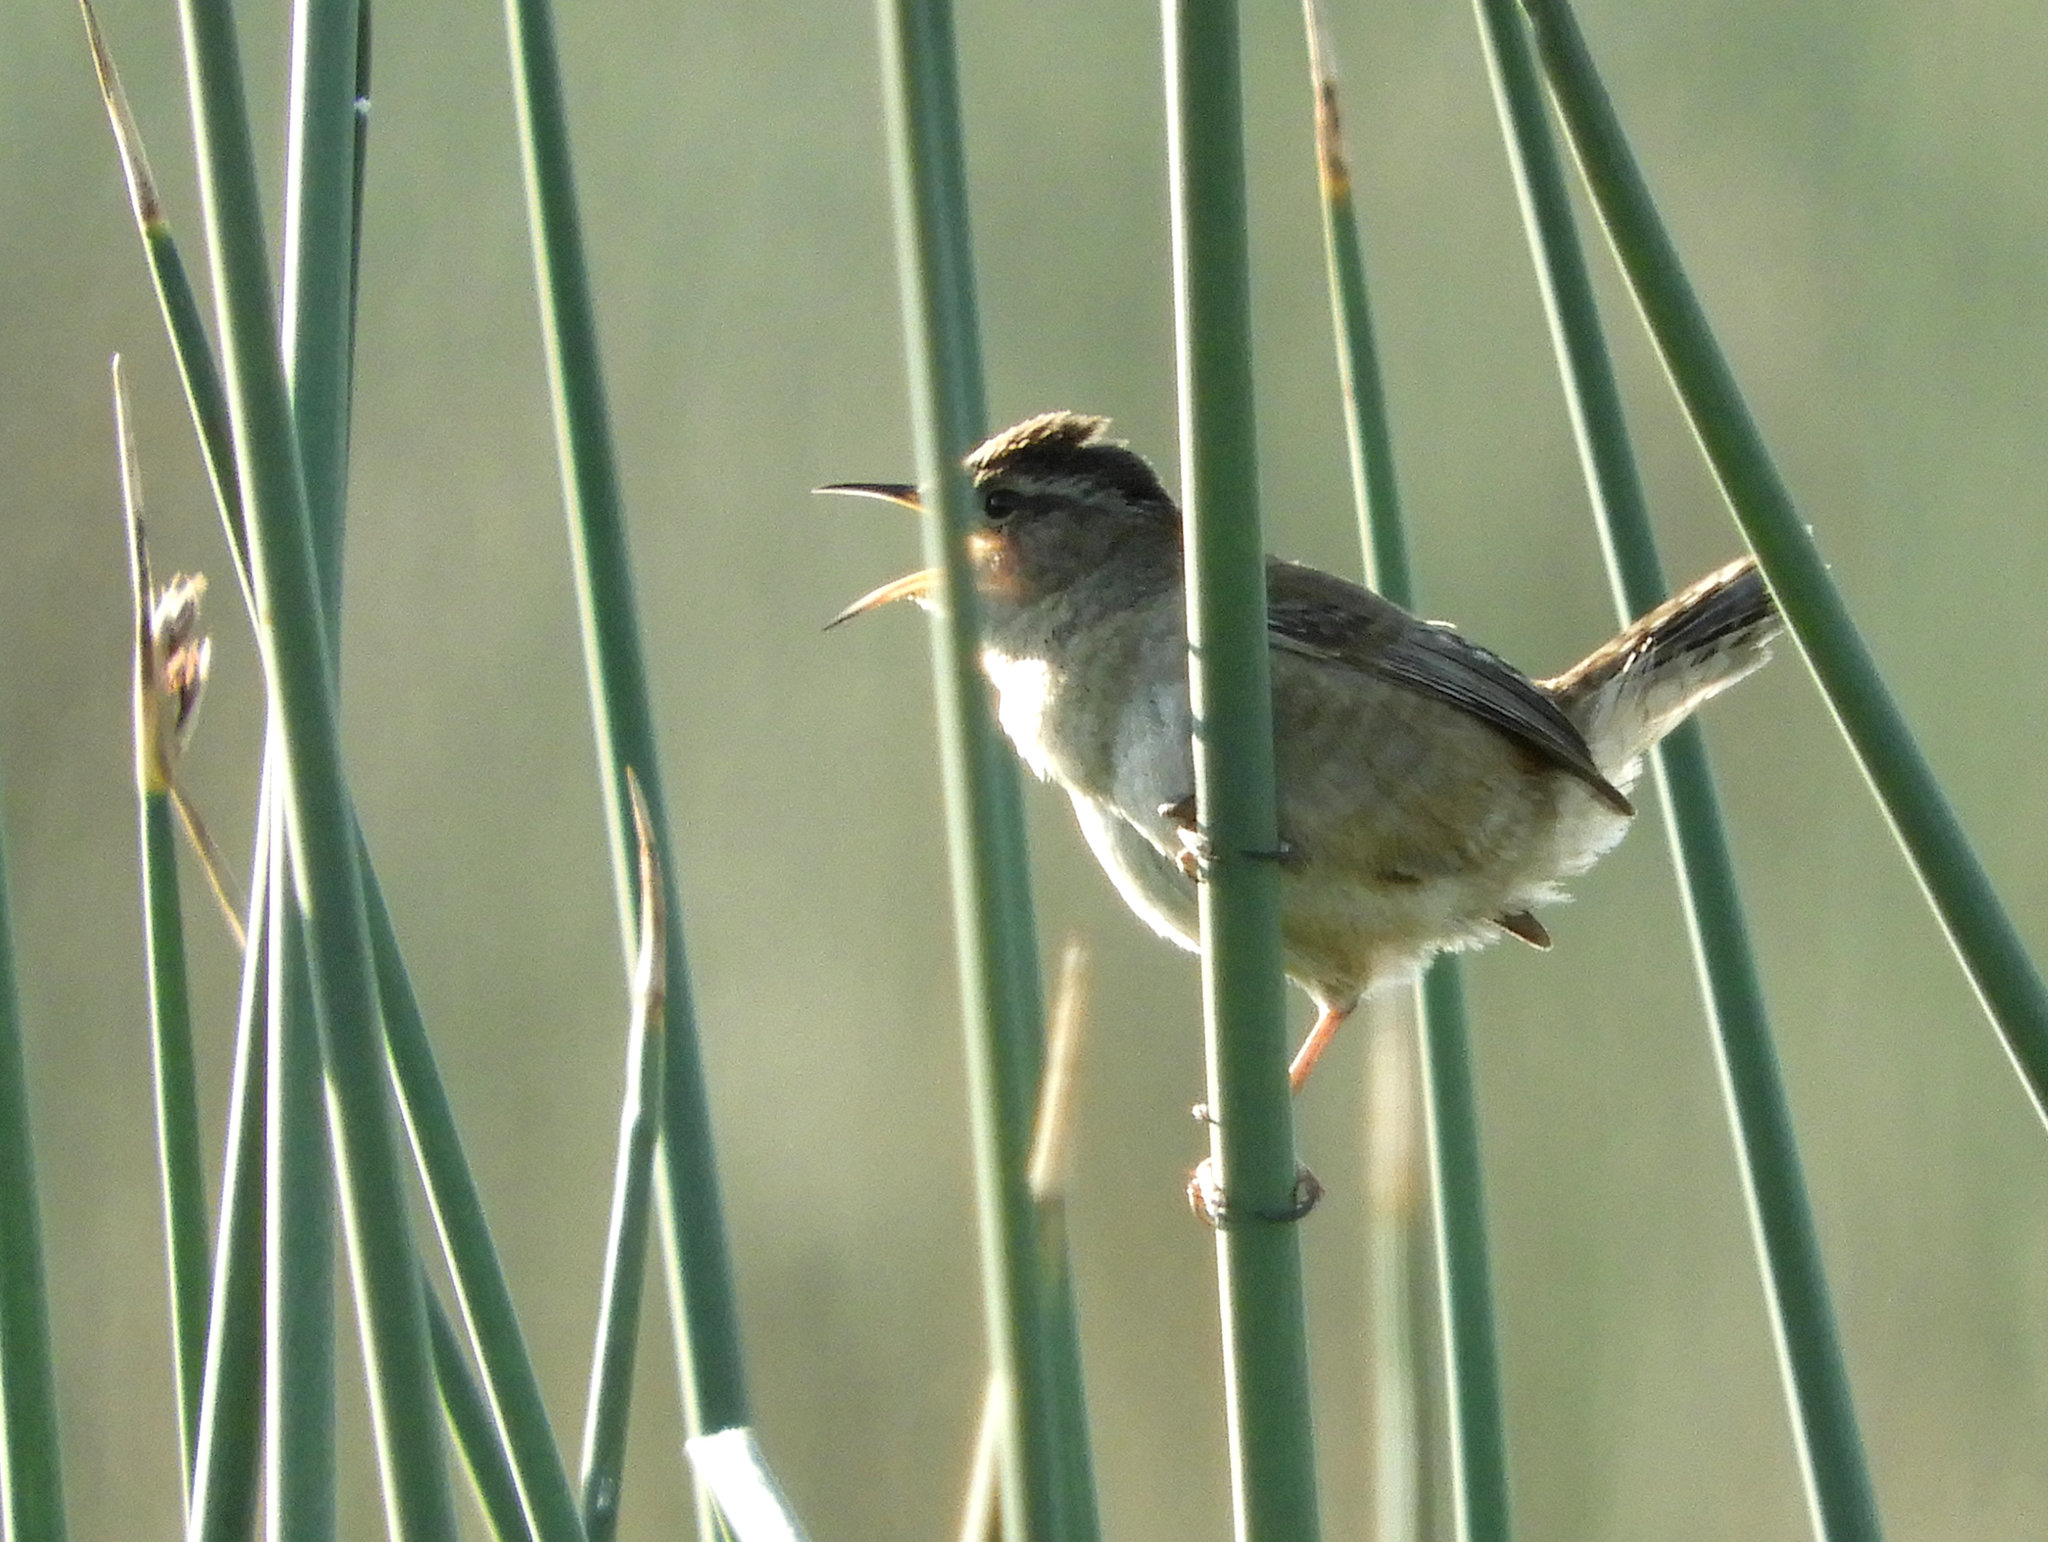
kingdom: Animalia
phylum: Chordata
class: Aves
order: Passeriformes
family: Troglodytidae
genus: Cistothorus
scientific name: Cistothorus palustris
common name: Marsh wren
